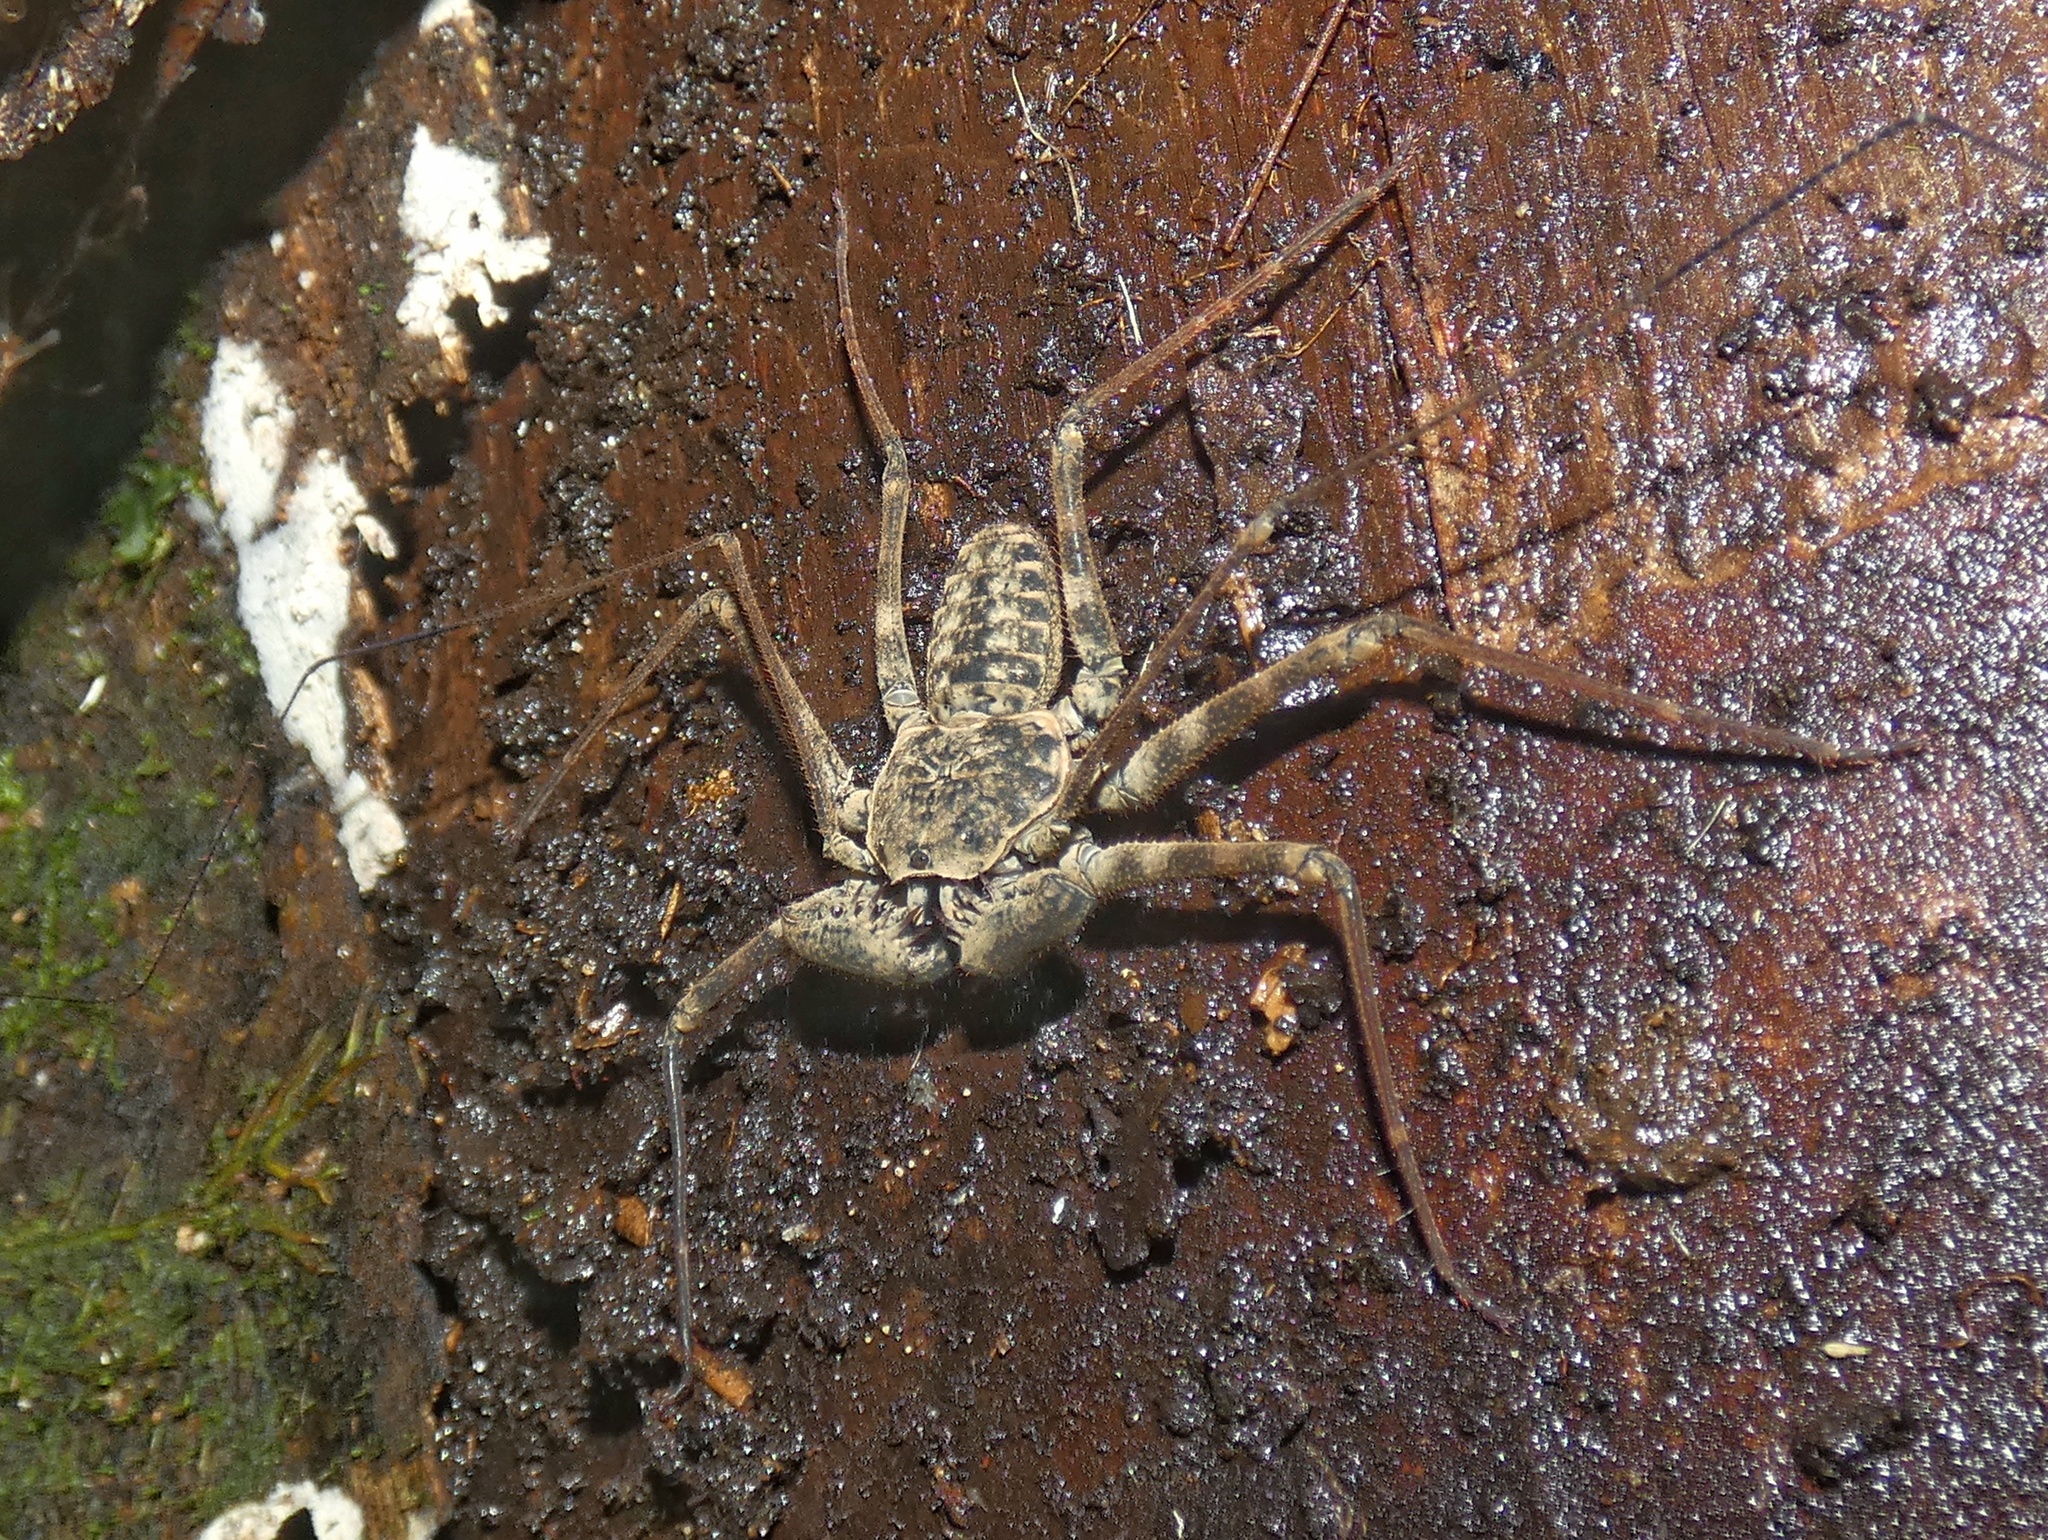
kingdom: Animalia
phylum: Arthropoda
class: Arachnida
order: Amblypygi
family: Phrynidae
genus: Phrynus
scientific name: Phrynus barbadensis
